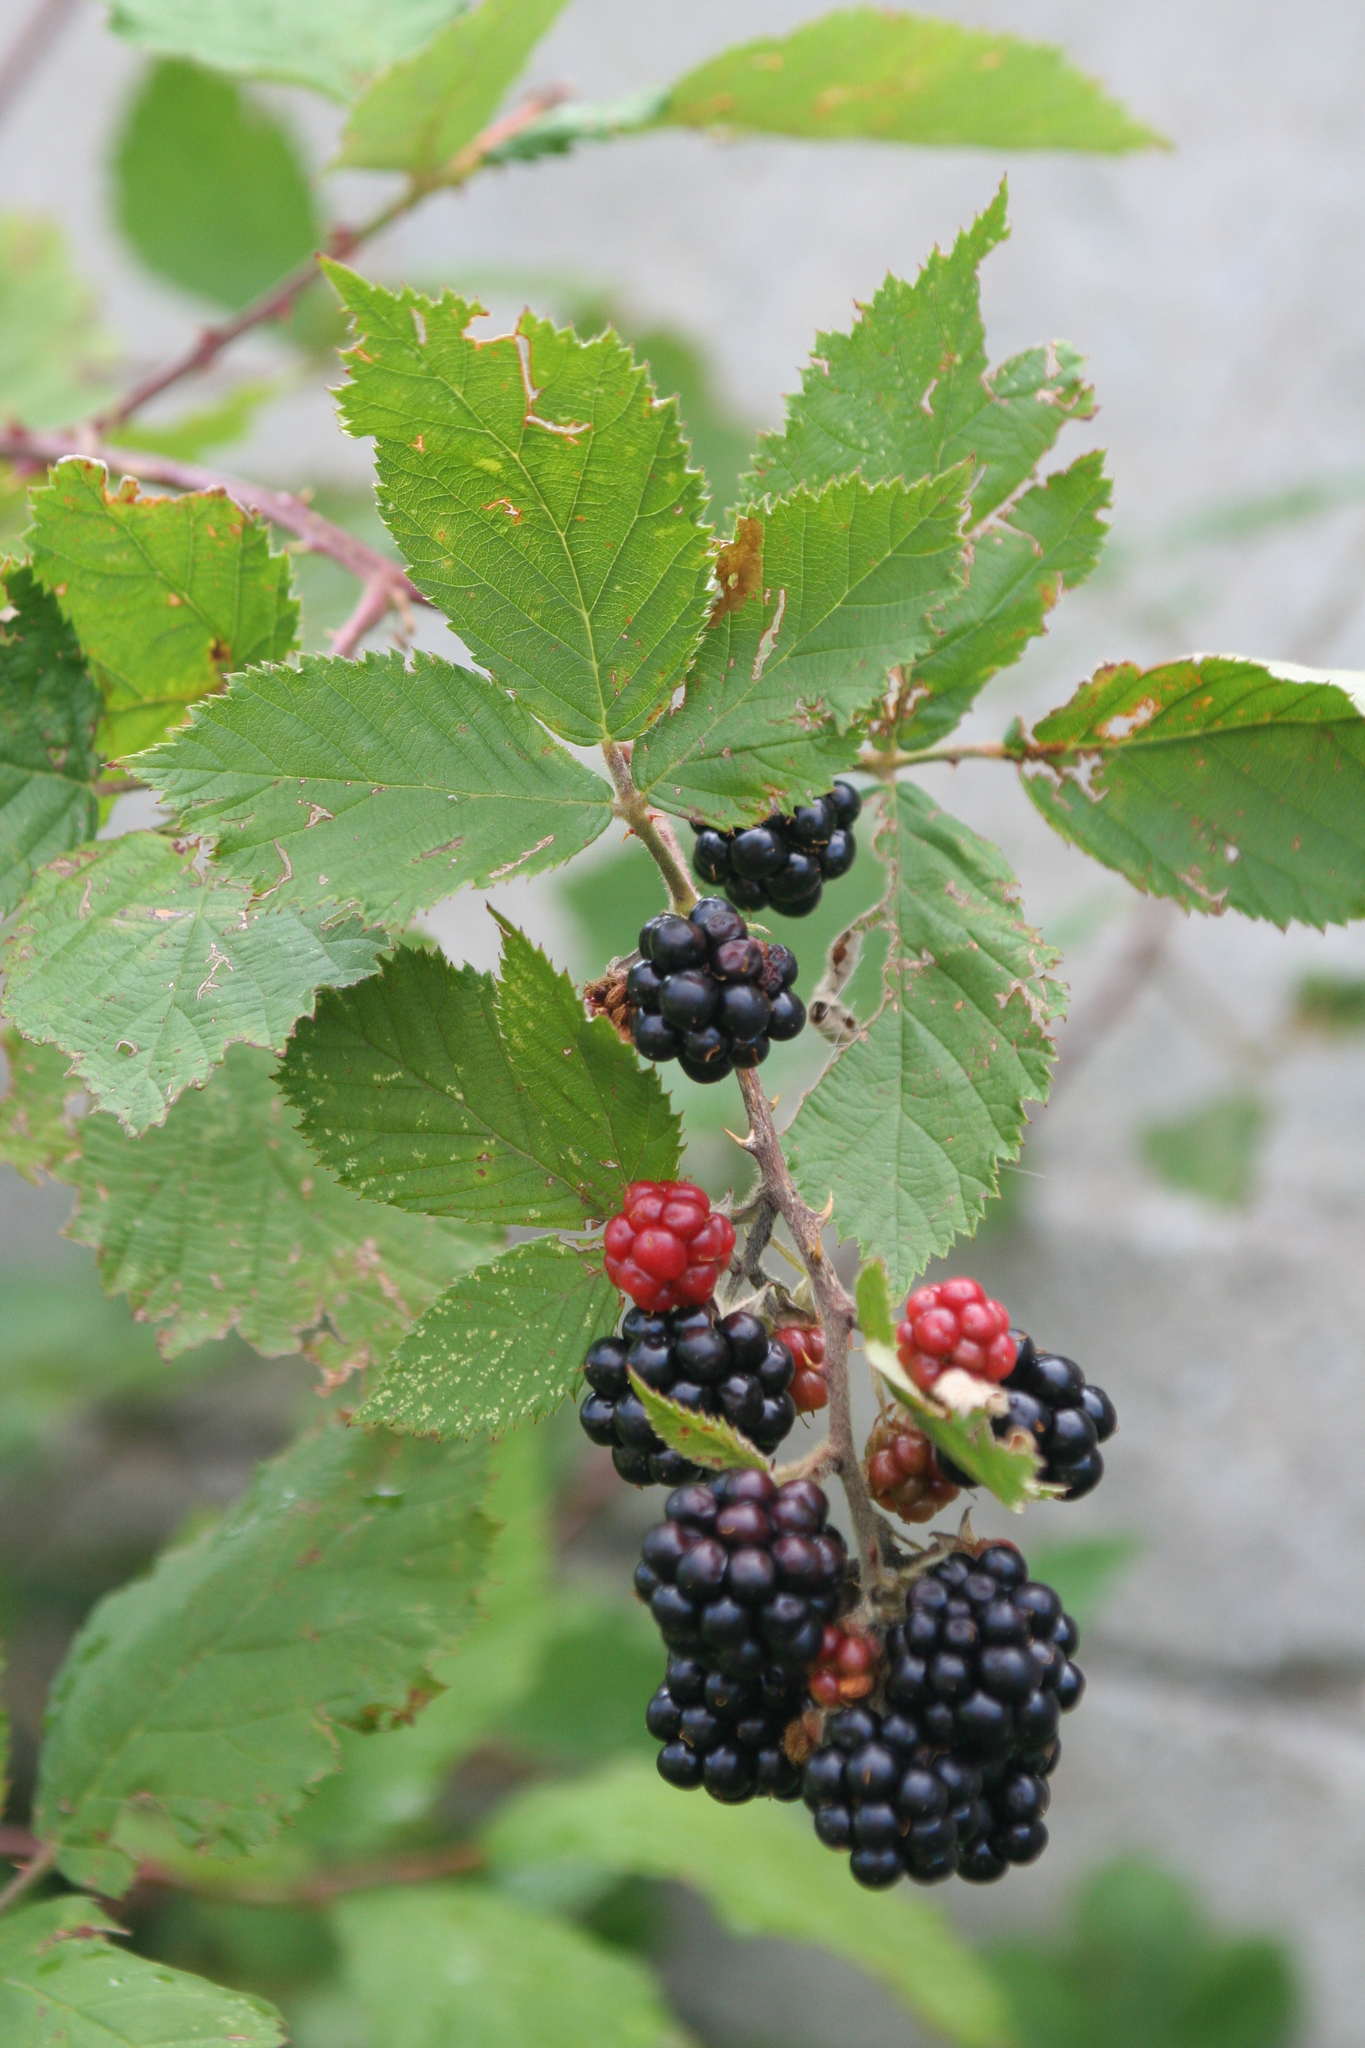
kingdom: Plantae
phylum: Tracheophyta
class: Magnoliopsida
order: Rosales
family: Rosaceae
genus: Rubus
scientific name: Rubus sanctus
